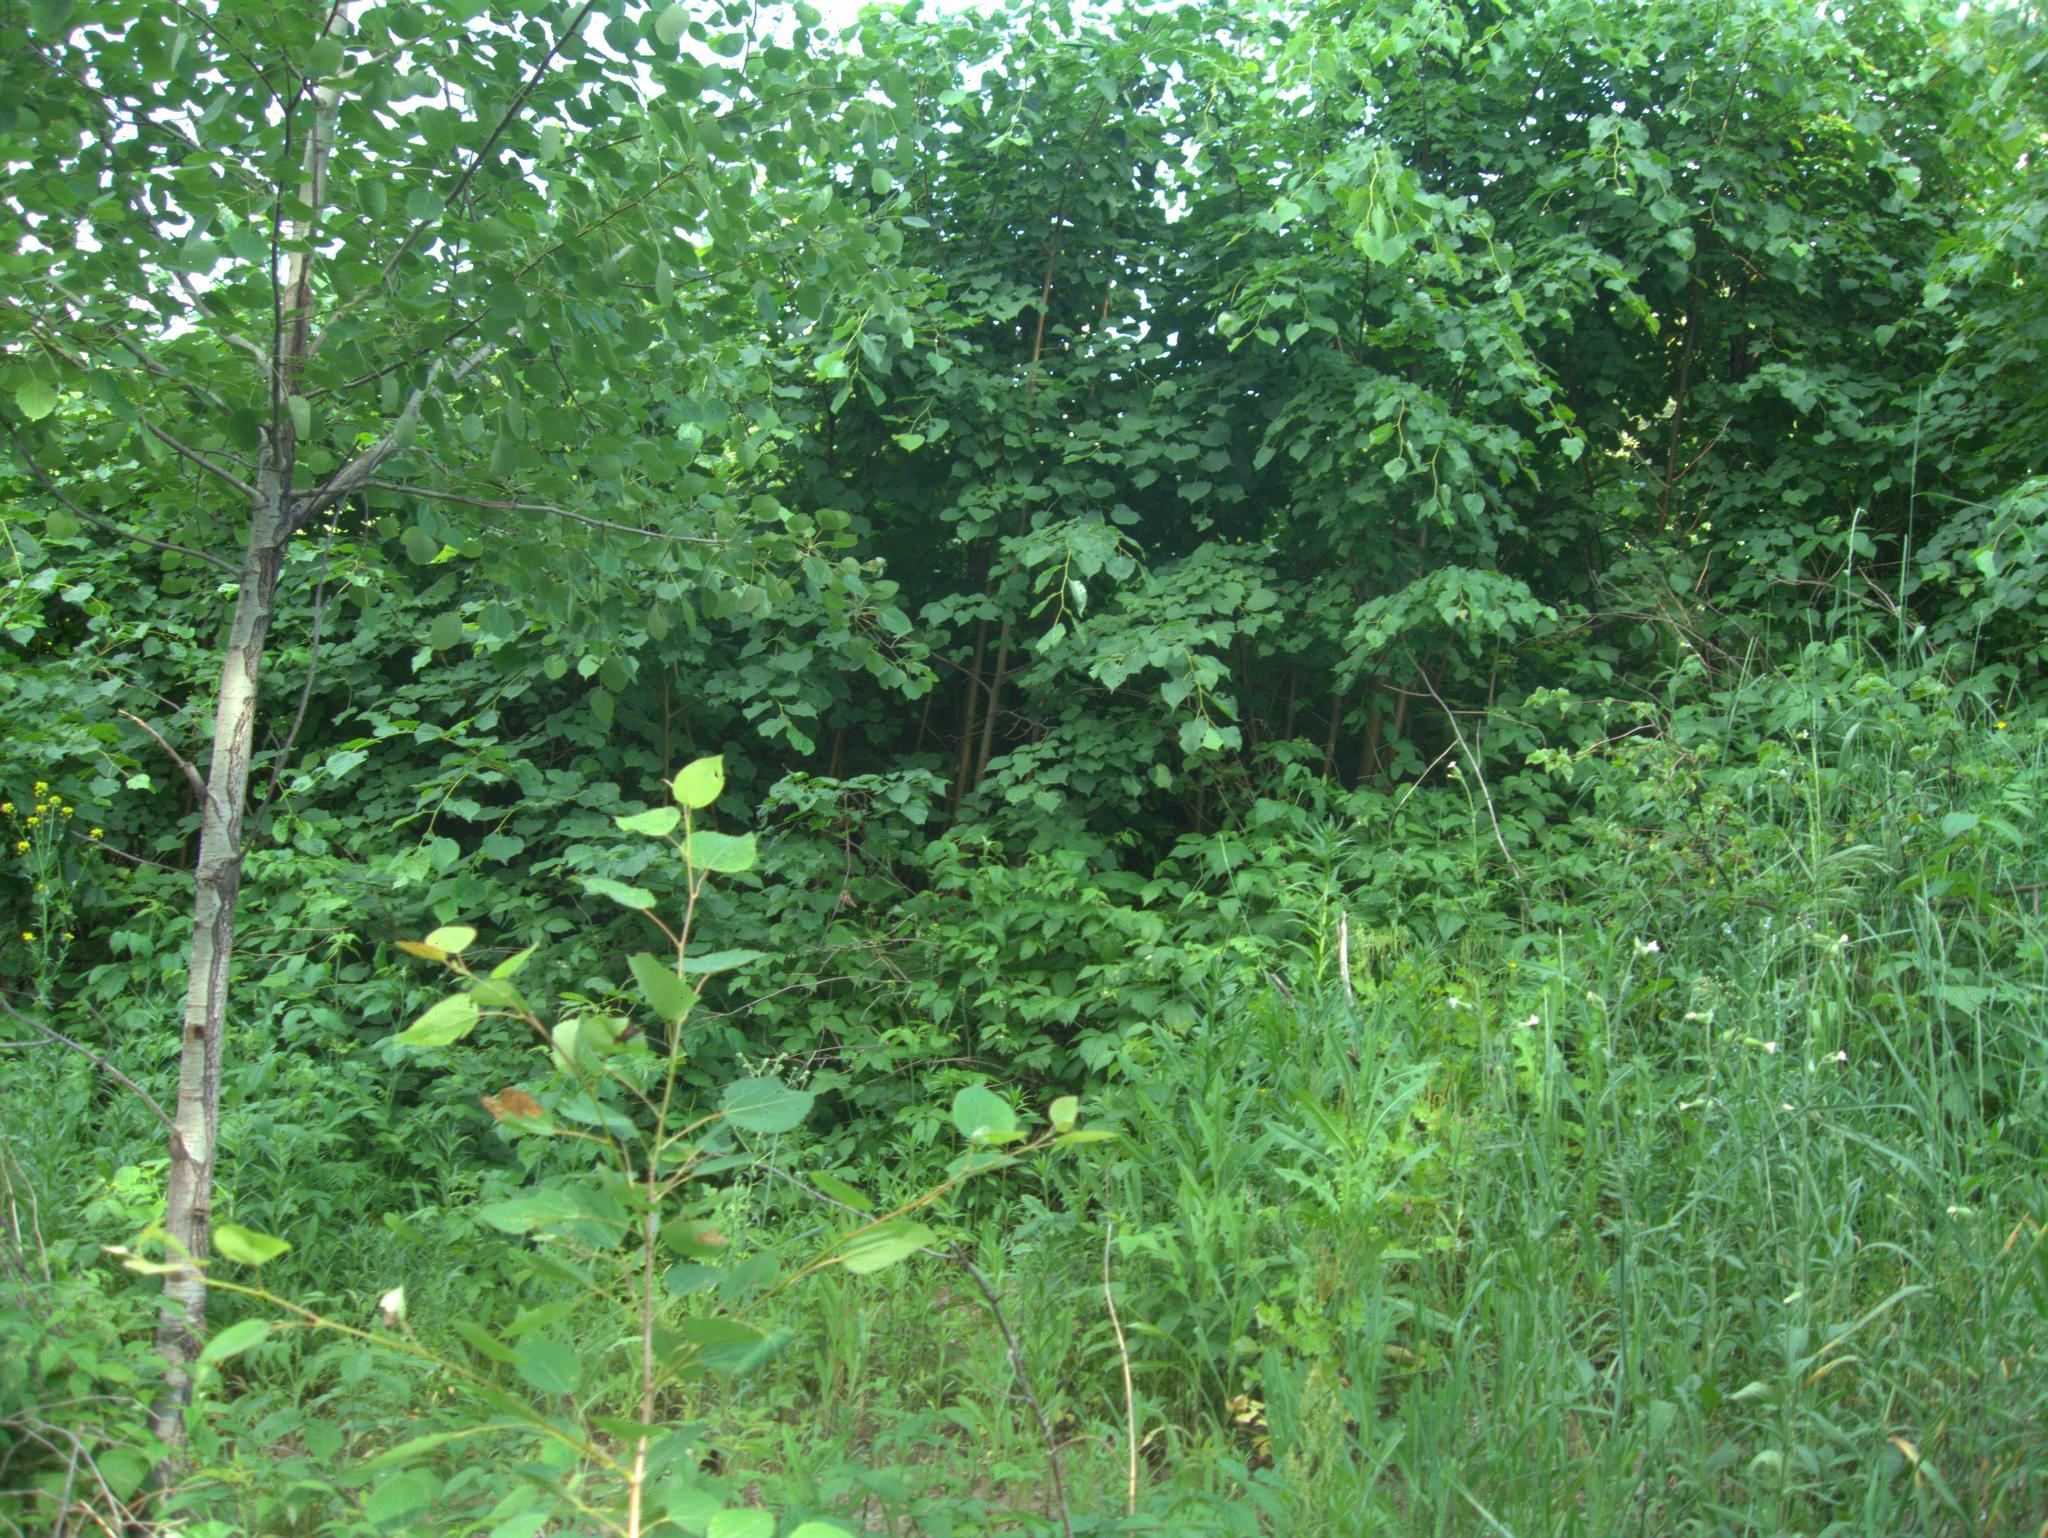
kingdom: Plantae
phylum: Tracheophyta
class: Magnoliopsida
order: Caryophyllales
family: Caryophyllaceae
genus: Silene
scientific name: Silene latifolia
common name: White campion
